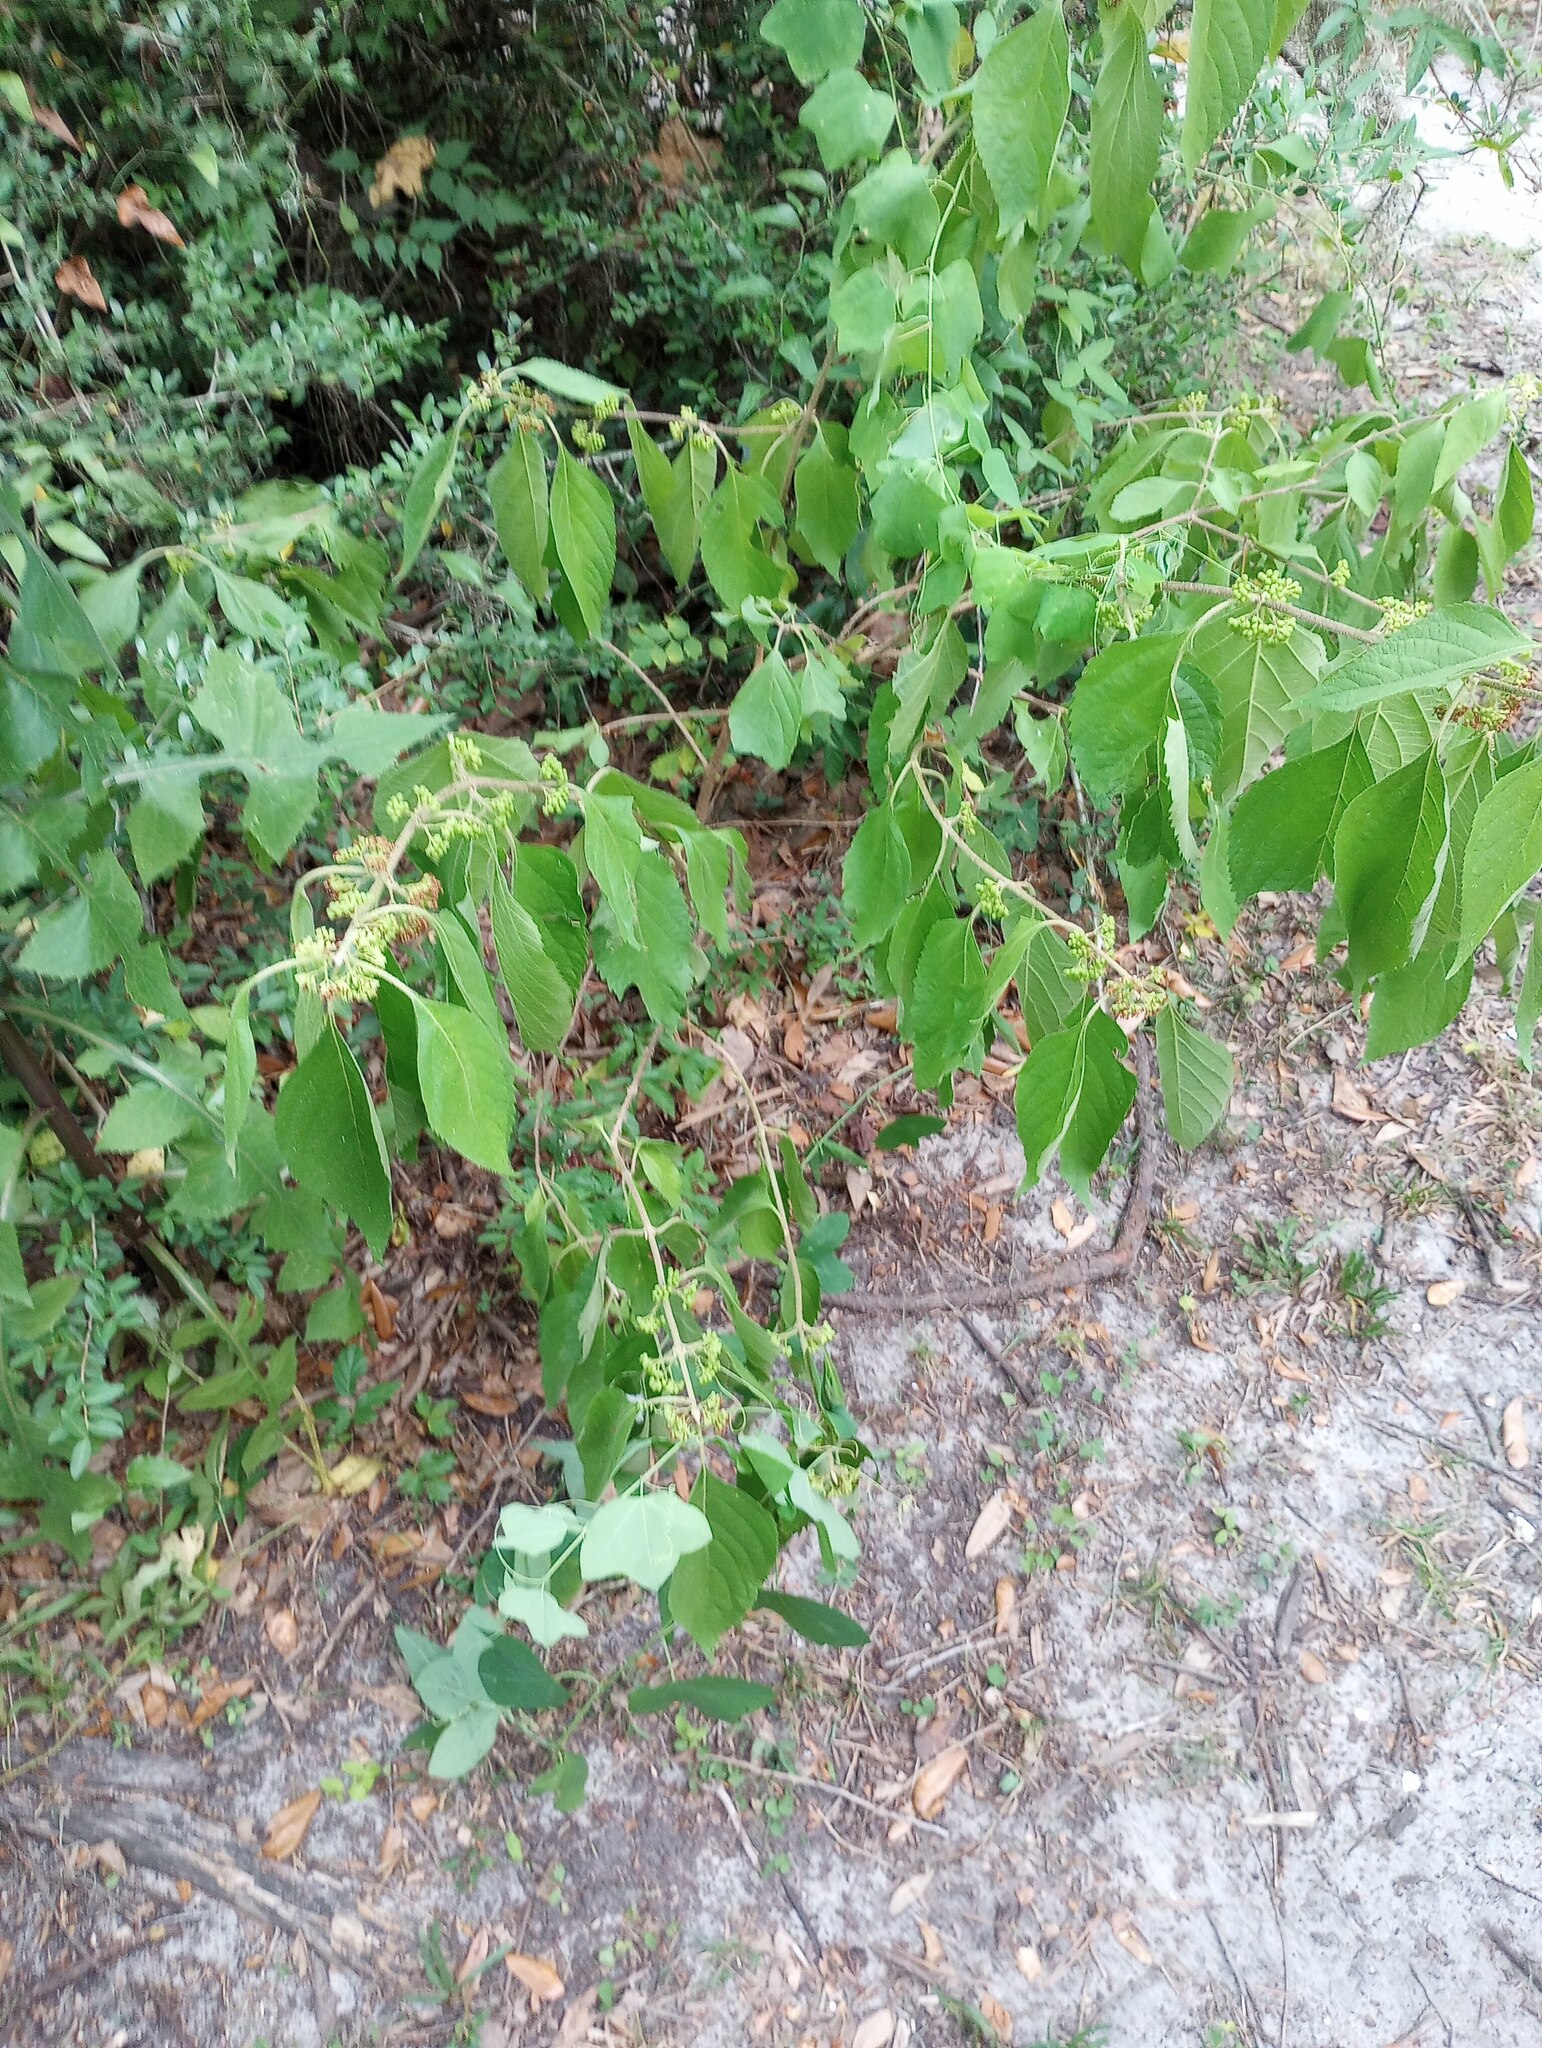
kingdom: Plantae
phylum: Tracheophyta
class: Magnoliopsida
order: Lamiales
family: Lamiaceae
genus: Callicarpa
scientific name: Callicarpa americana
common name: American beautyberry
